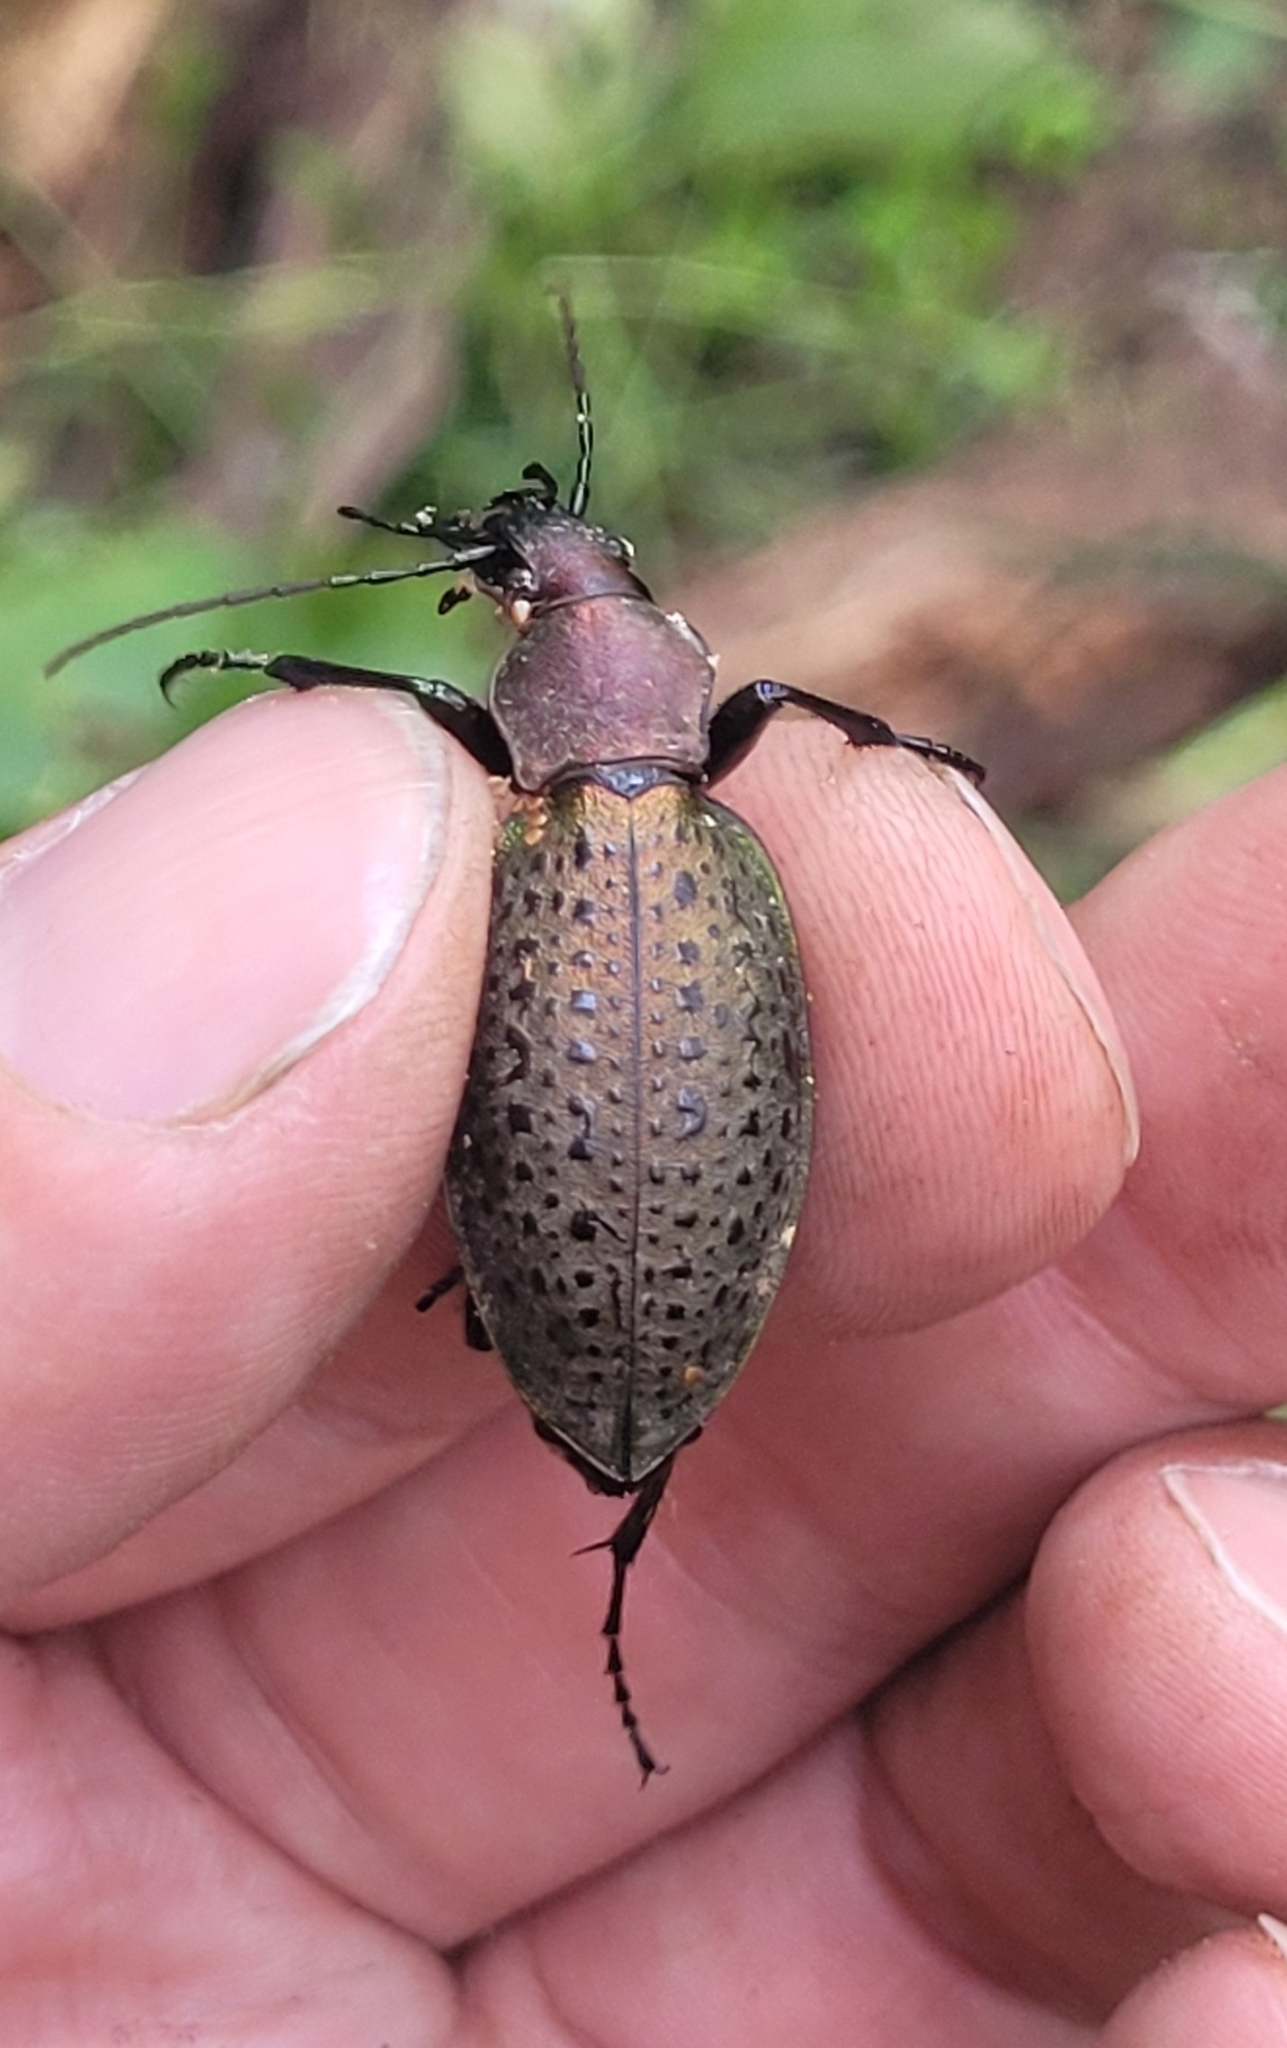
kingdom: Animalia
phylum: Arthropoda
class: Insecta
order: Coleoptera
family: Carabidae
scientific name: Carabidae
